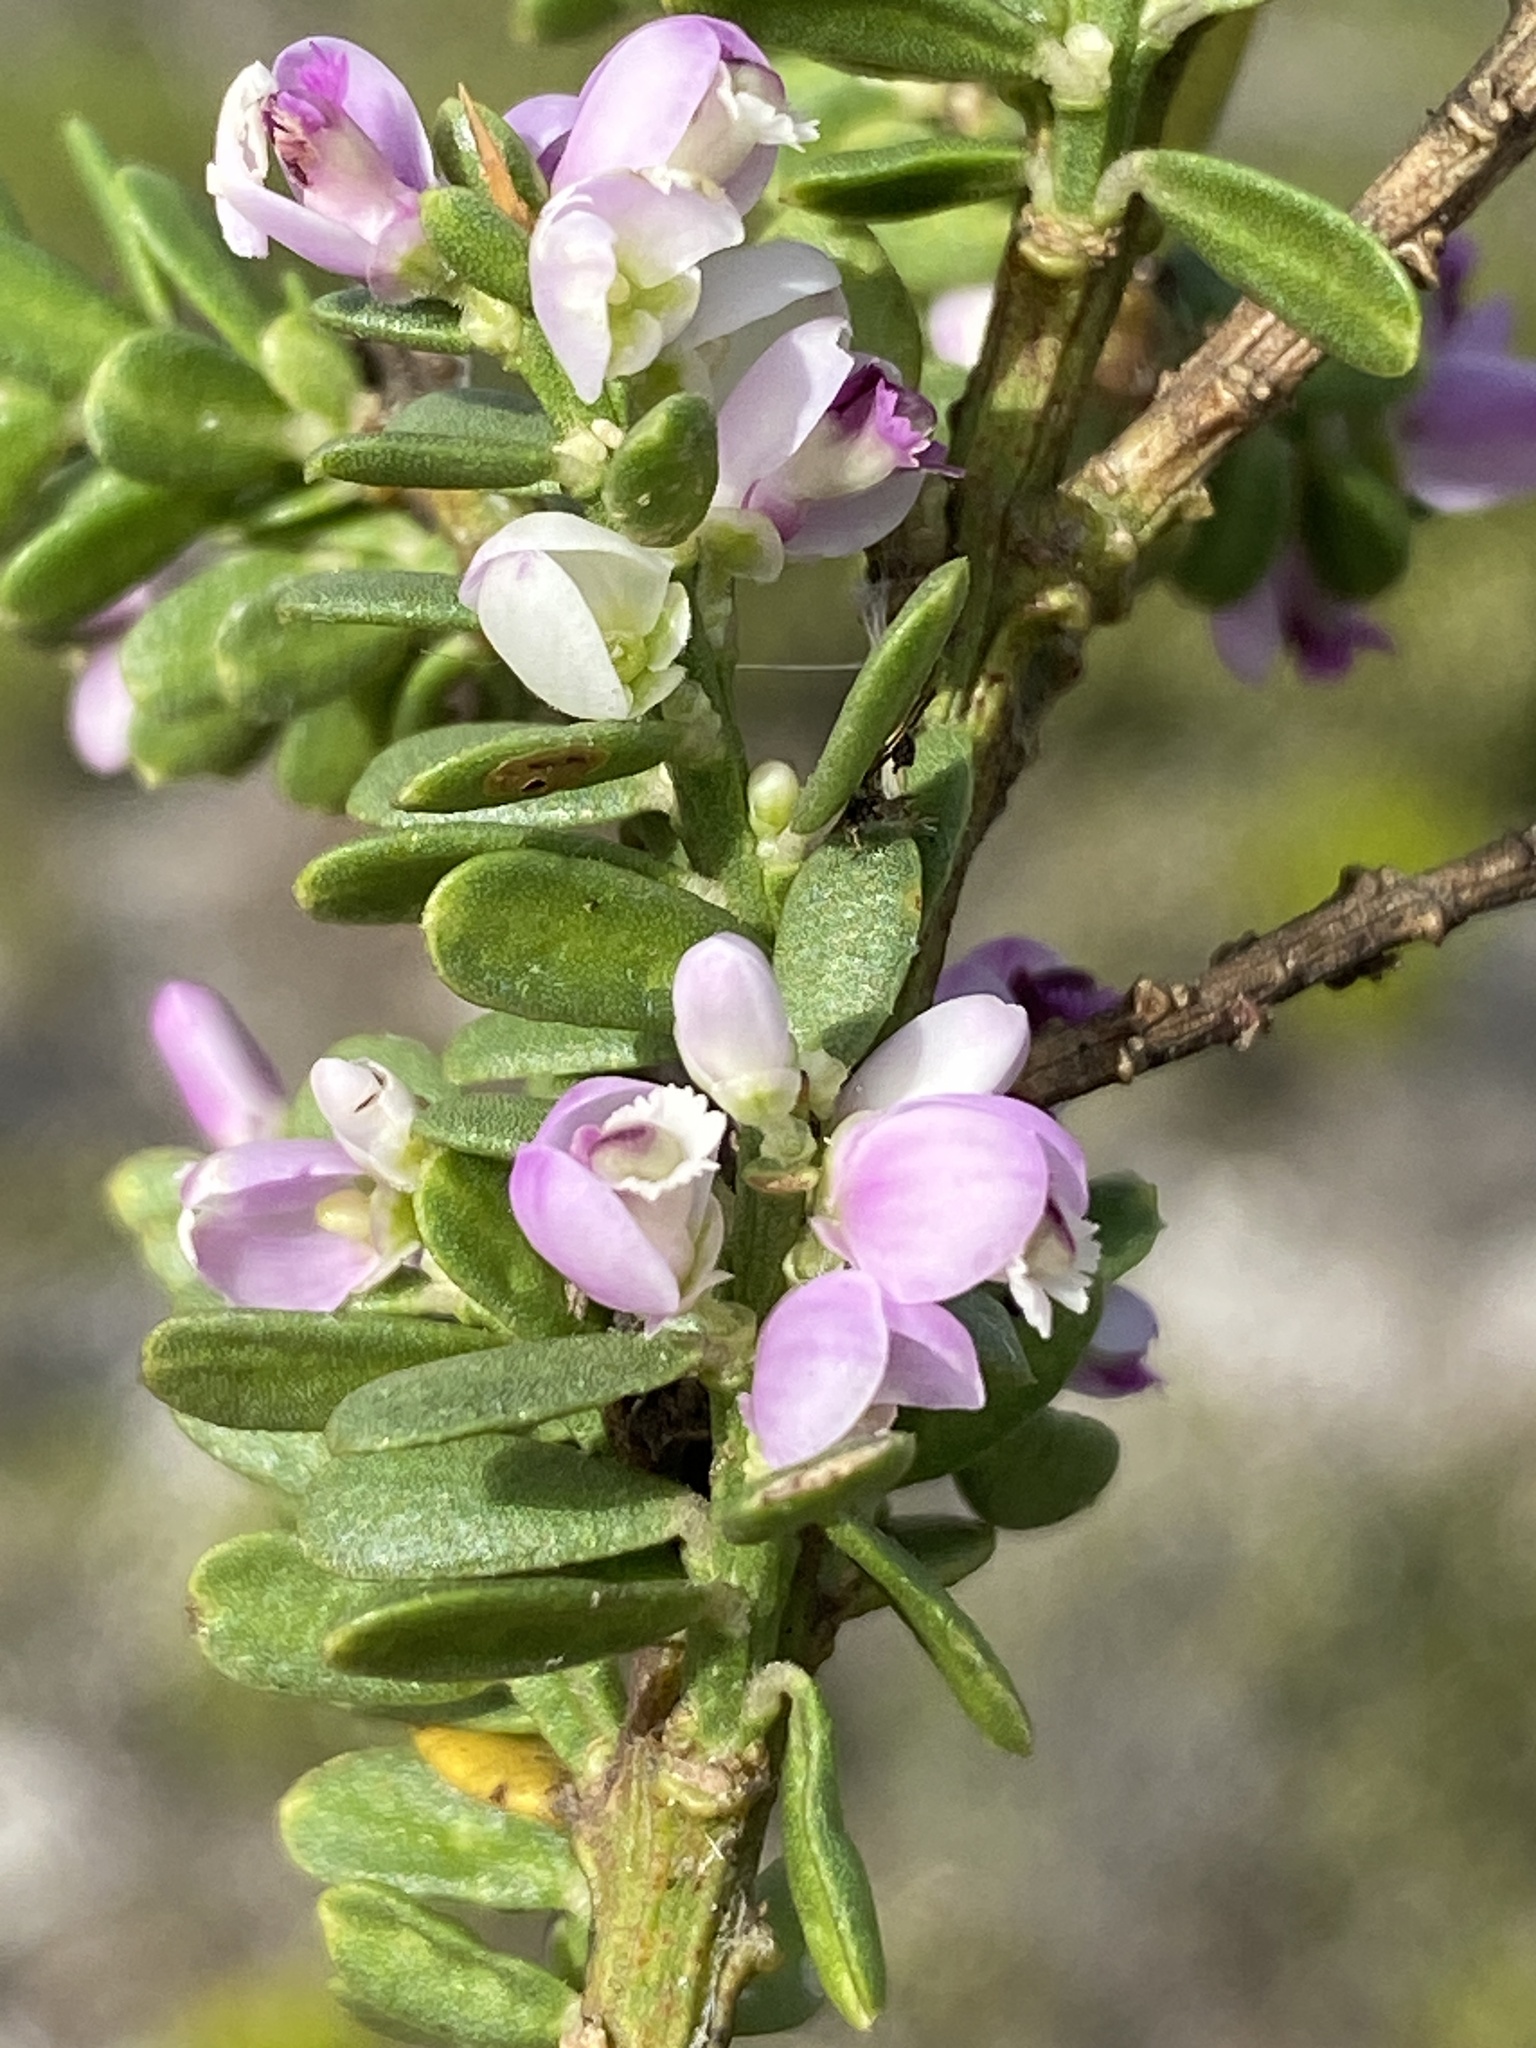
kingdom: Plantae
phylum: Tracheophyta
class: Magnoliopsida
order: Fabales
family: Polygalaceae
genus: Muraltia
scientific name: Muraltia spinosa
